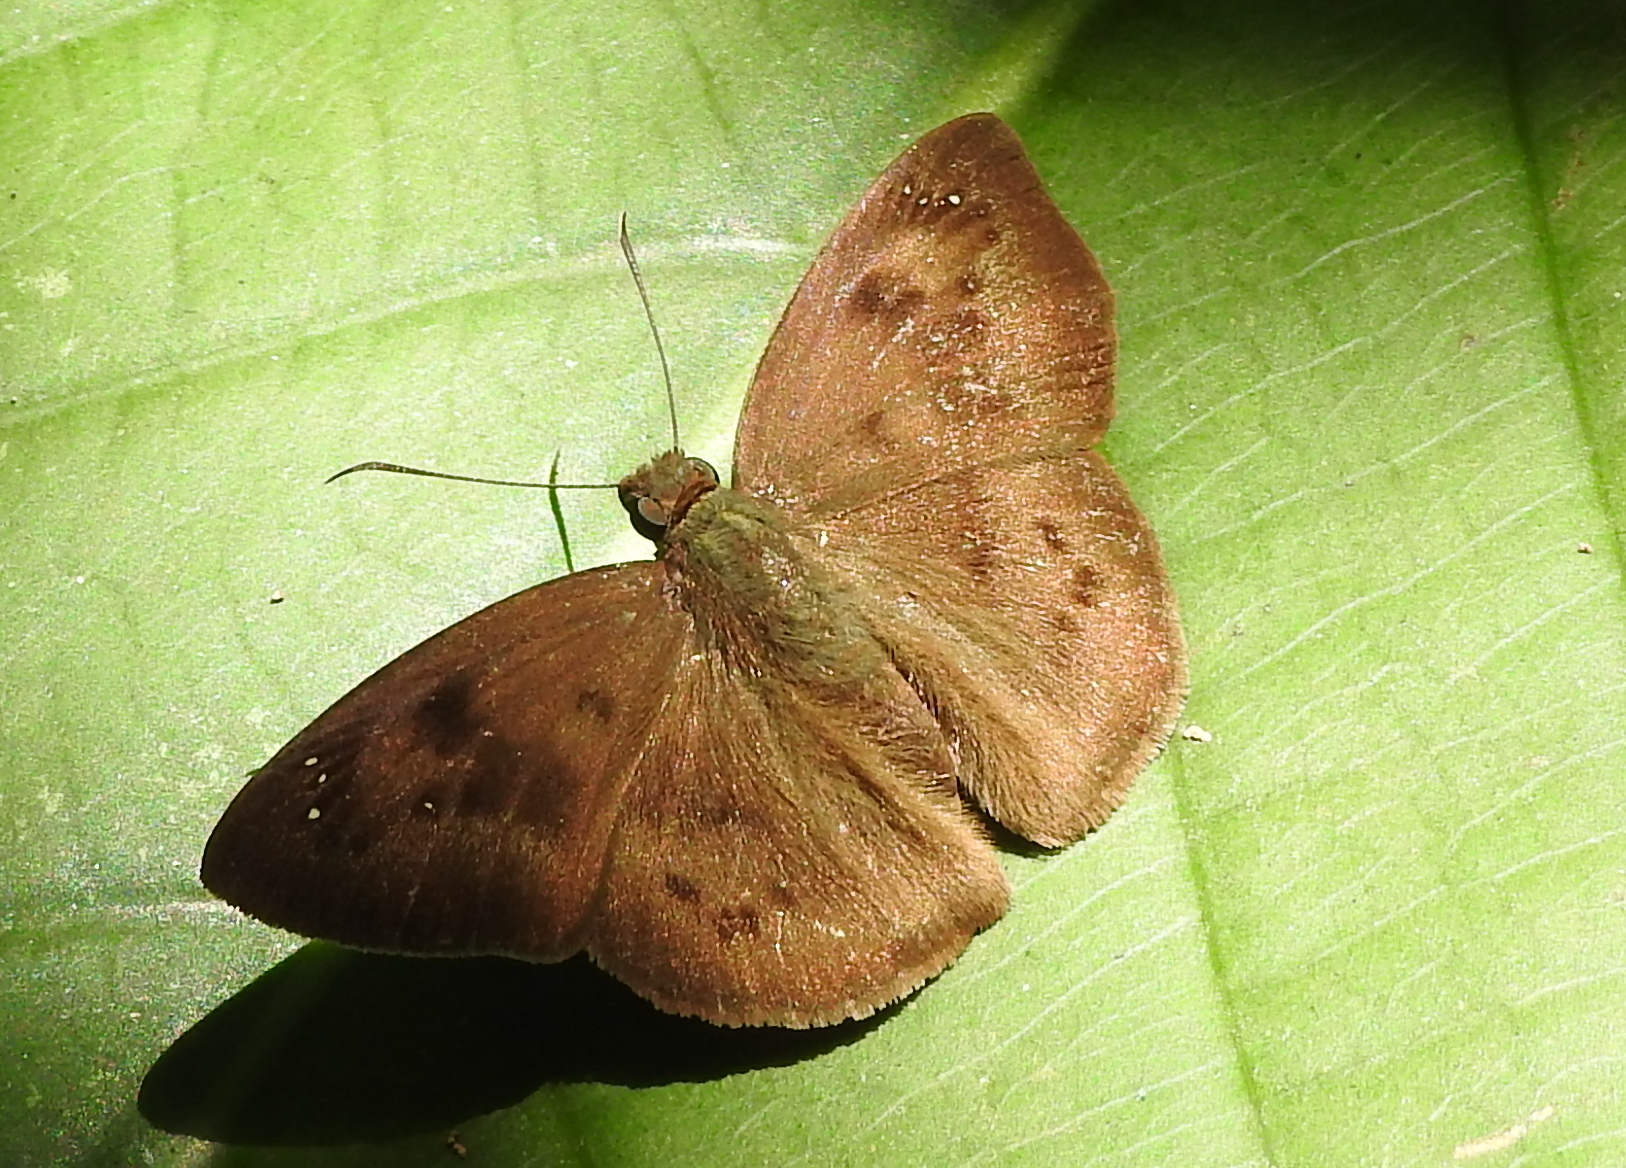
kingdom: Animalia
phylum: Arthropoda
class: Insecta
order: Lepidoptera
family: Hesperiidae
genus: Tagiades
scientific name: Tagiades japetus
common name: Pied flat
